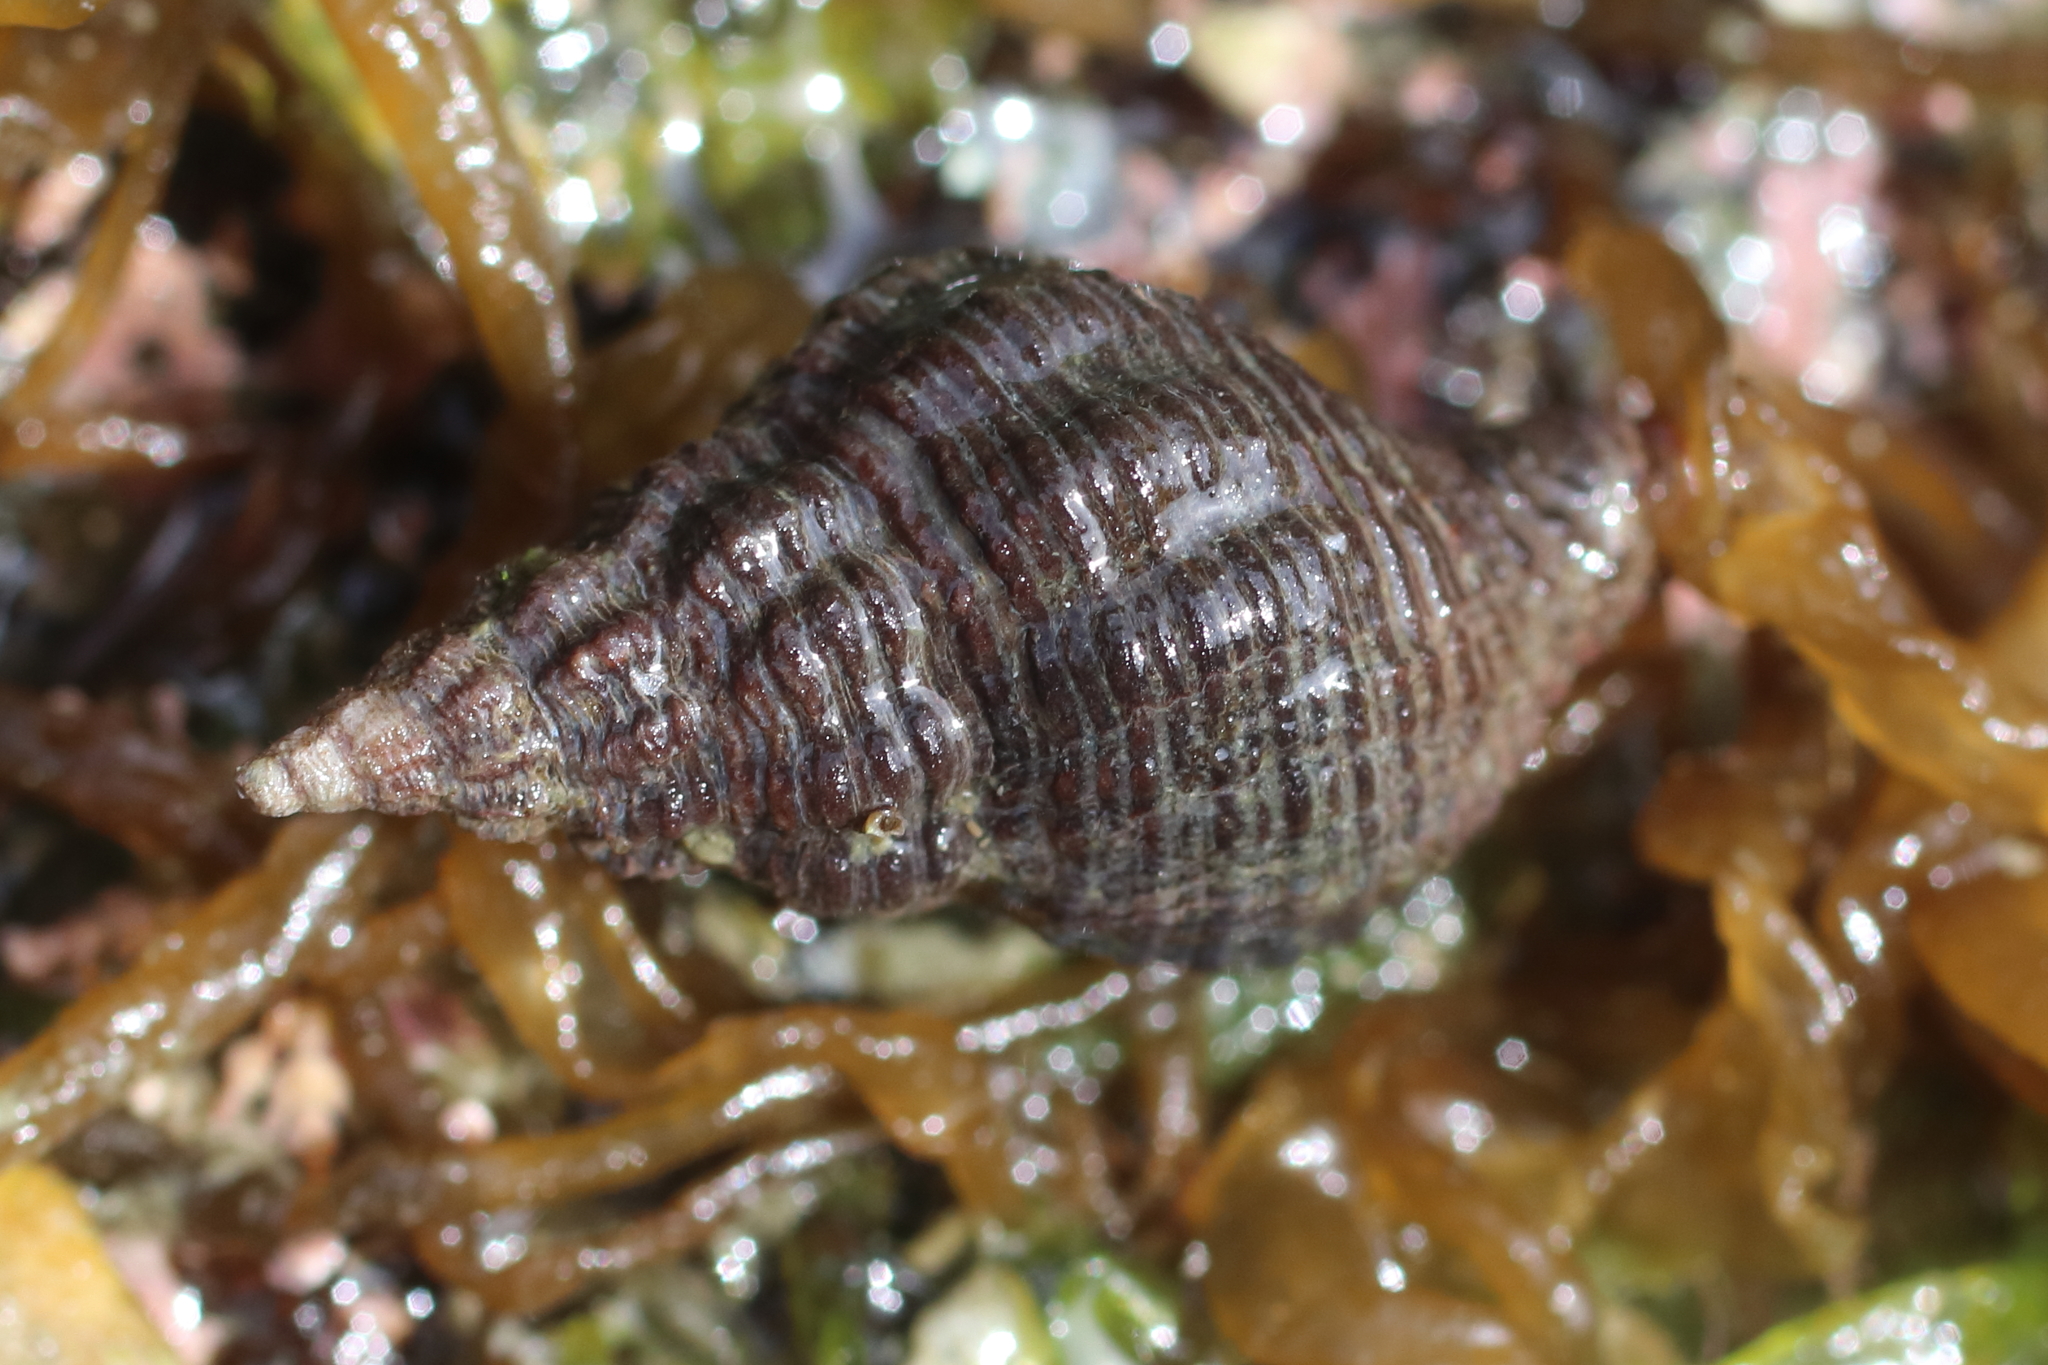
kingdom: Animalia
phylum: Mollusca
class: Gastropoda
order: Neogastropoda
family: Tudiclidae
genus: Lirabuccinum
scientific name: Lirabuccinum dirum
